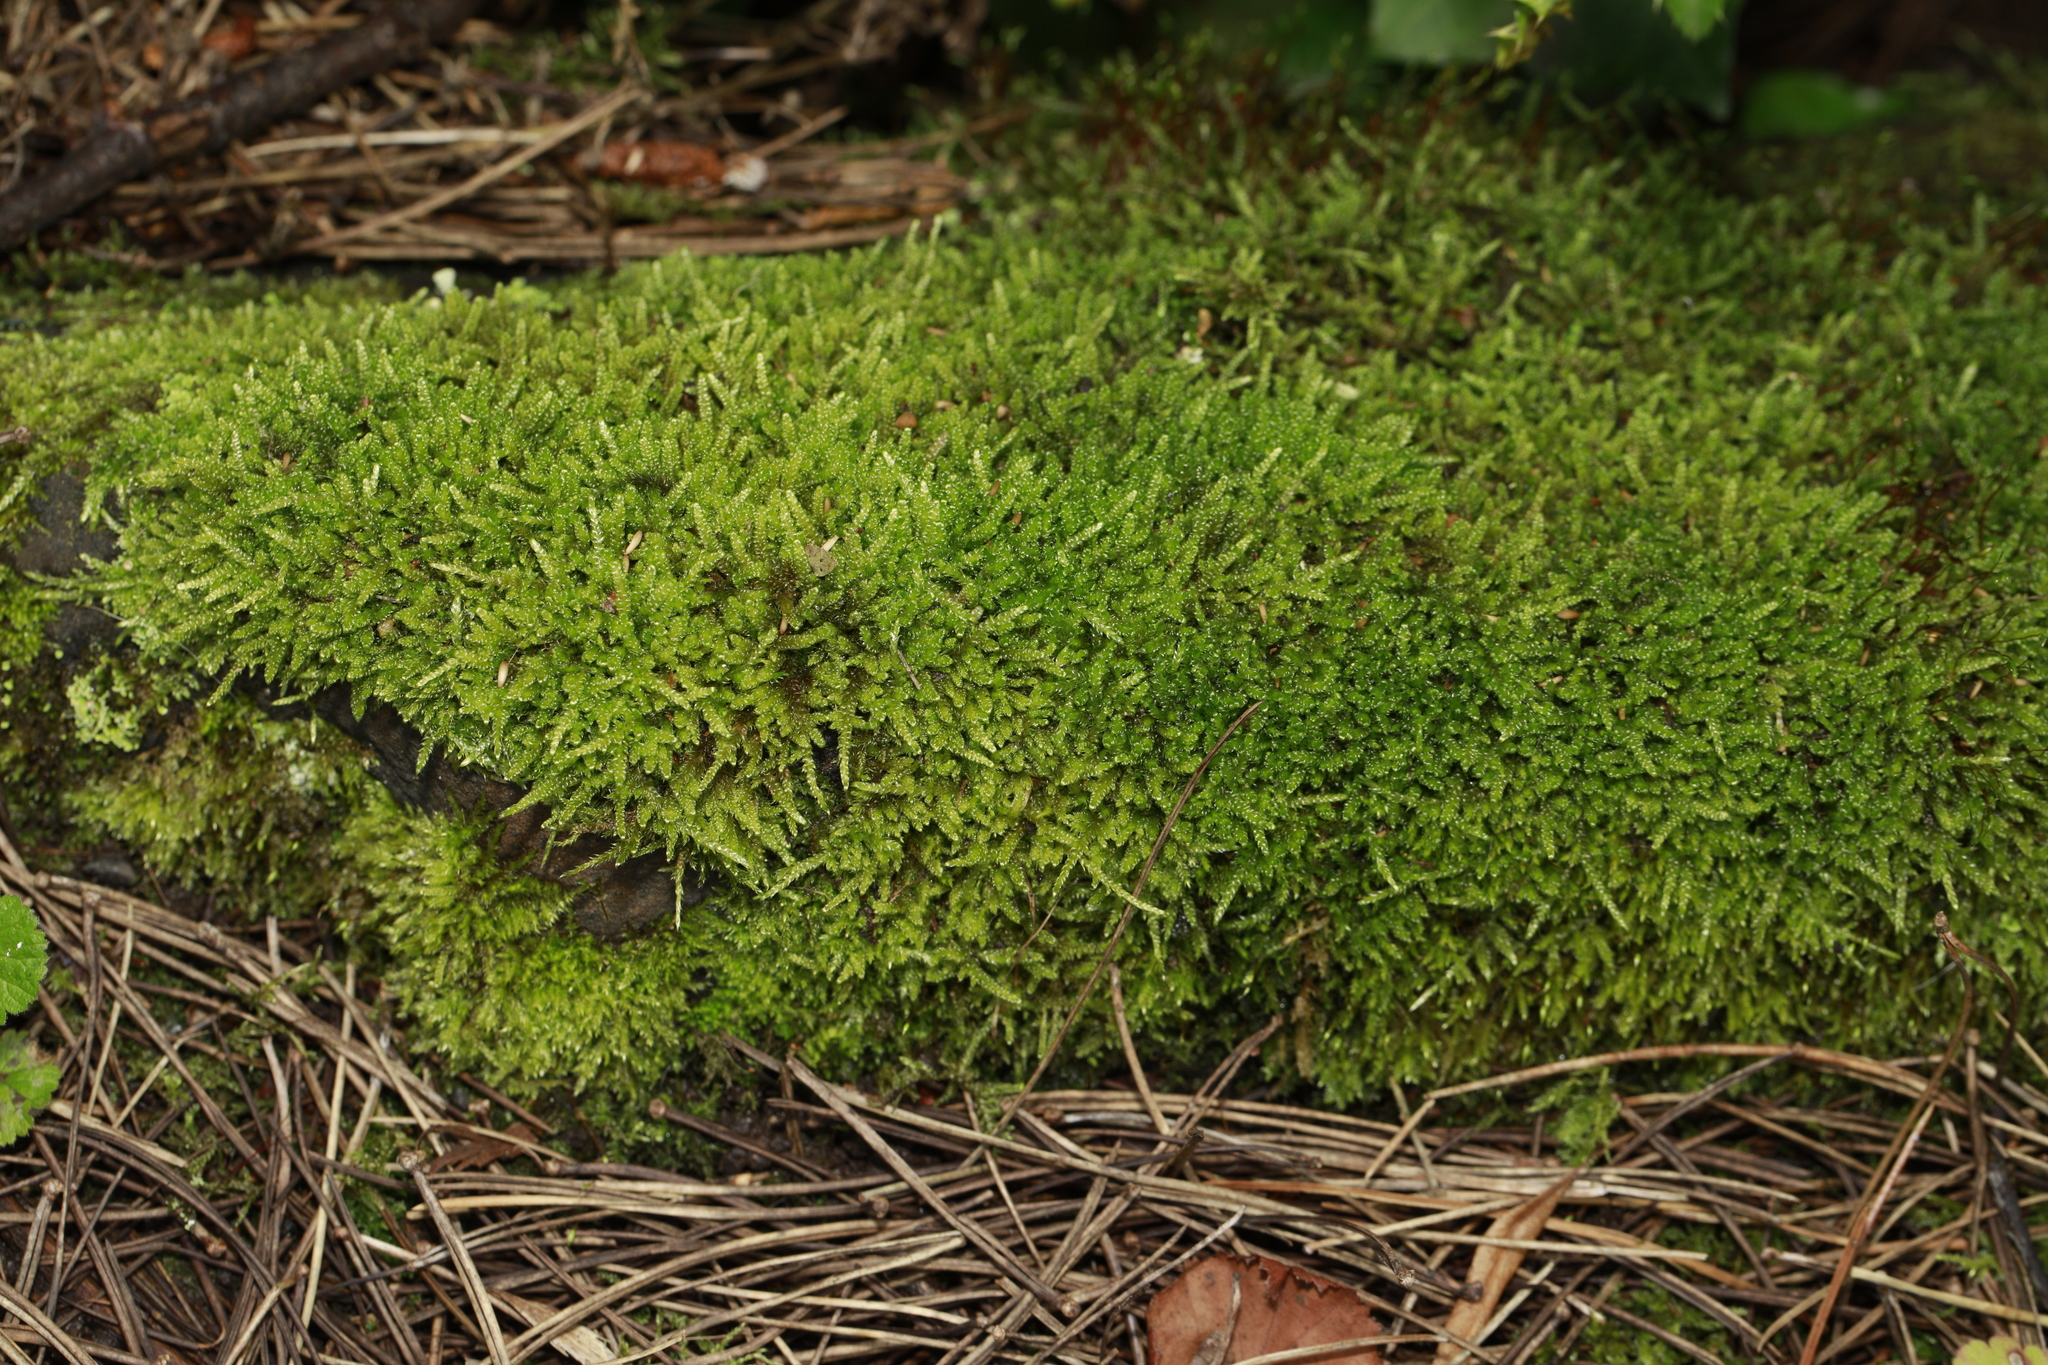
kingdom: Plantae
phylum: Bryophyta
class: Bryopsida
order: Hypnales
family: Hypnaceae
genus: Hypnum
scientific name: Hypnum cupressiforme
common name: Cypress-leaved plait-moss
